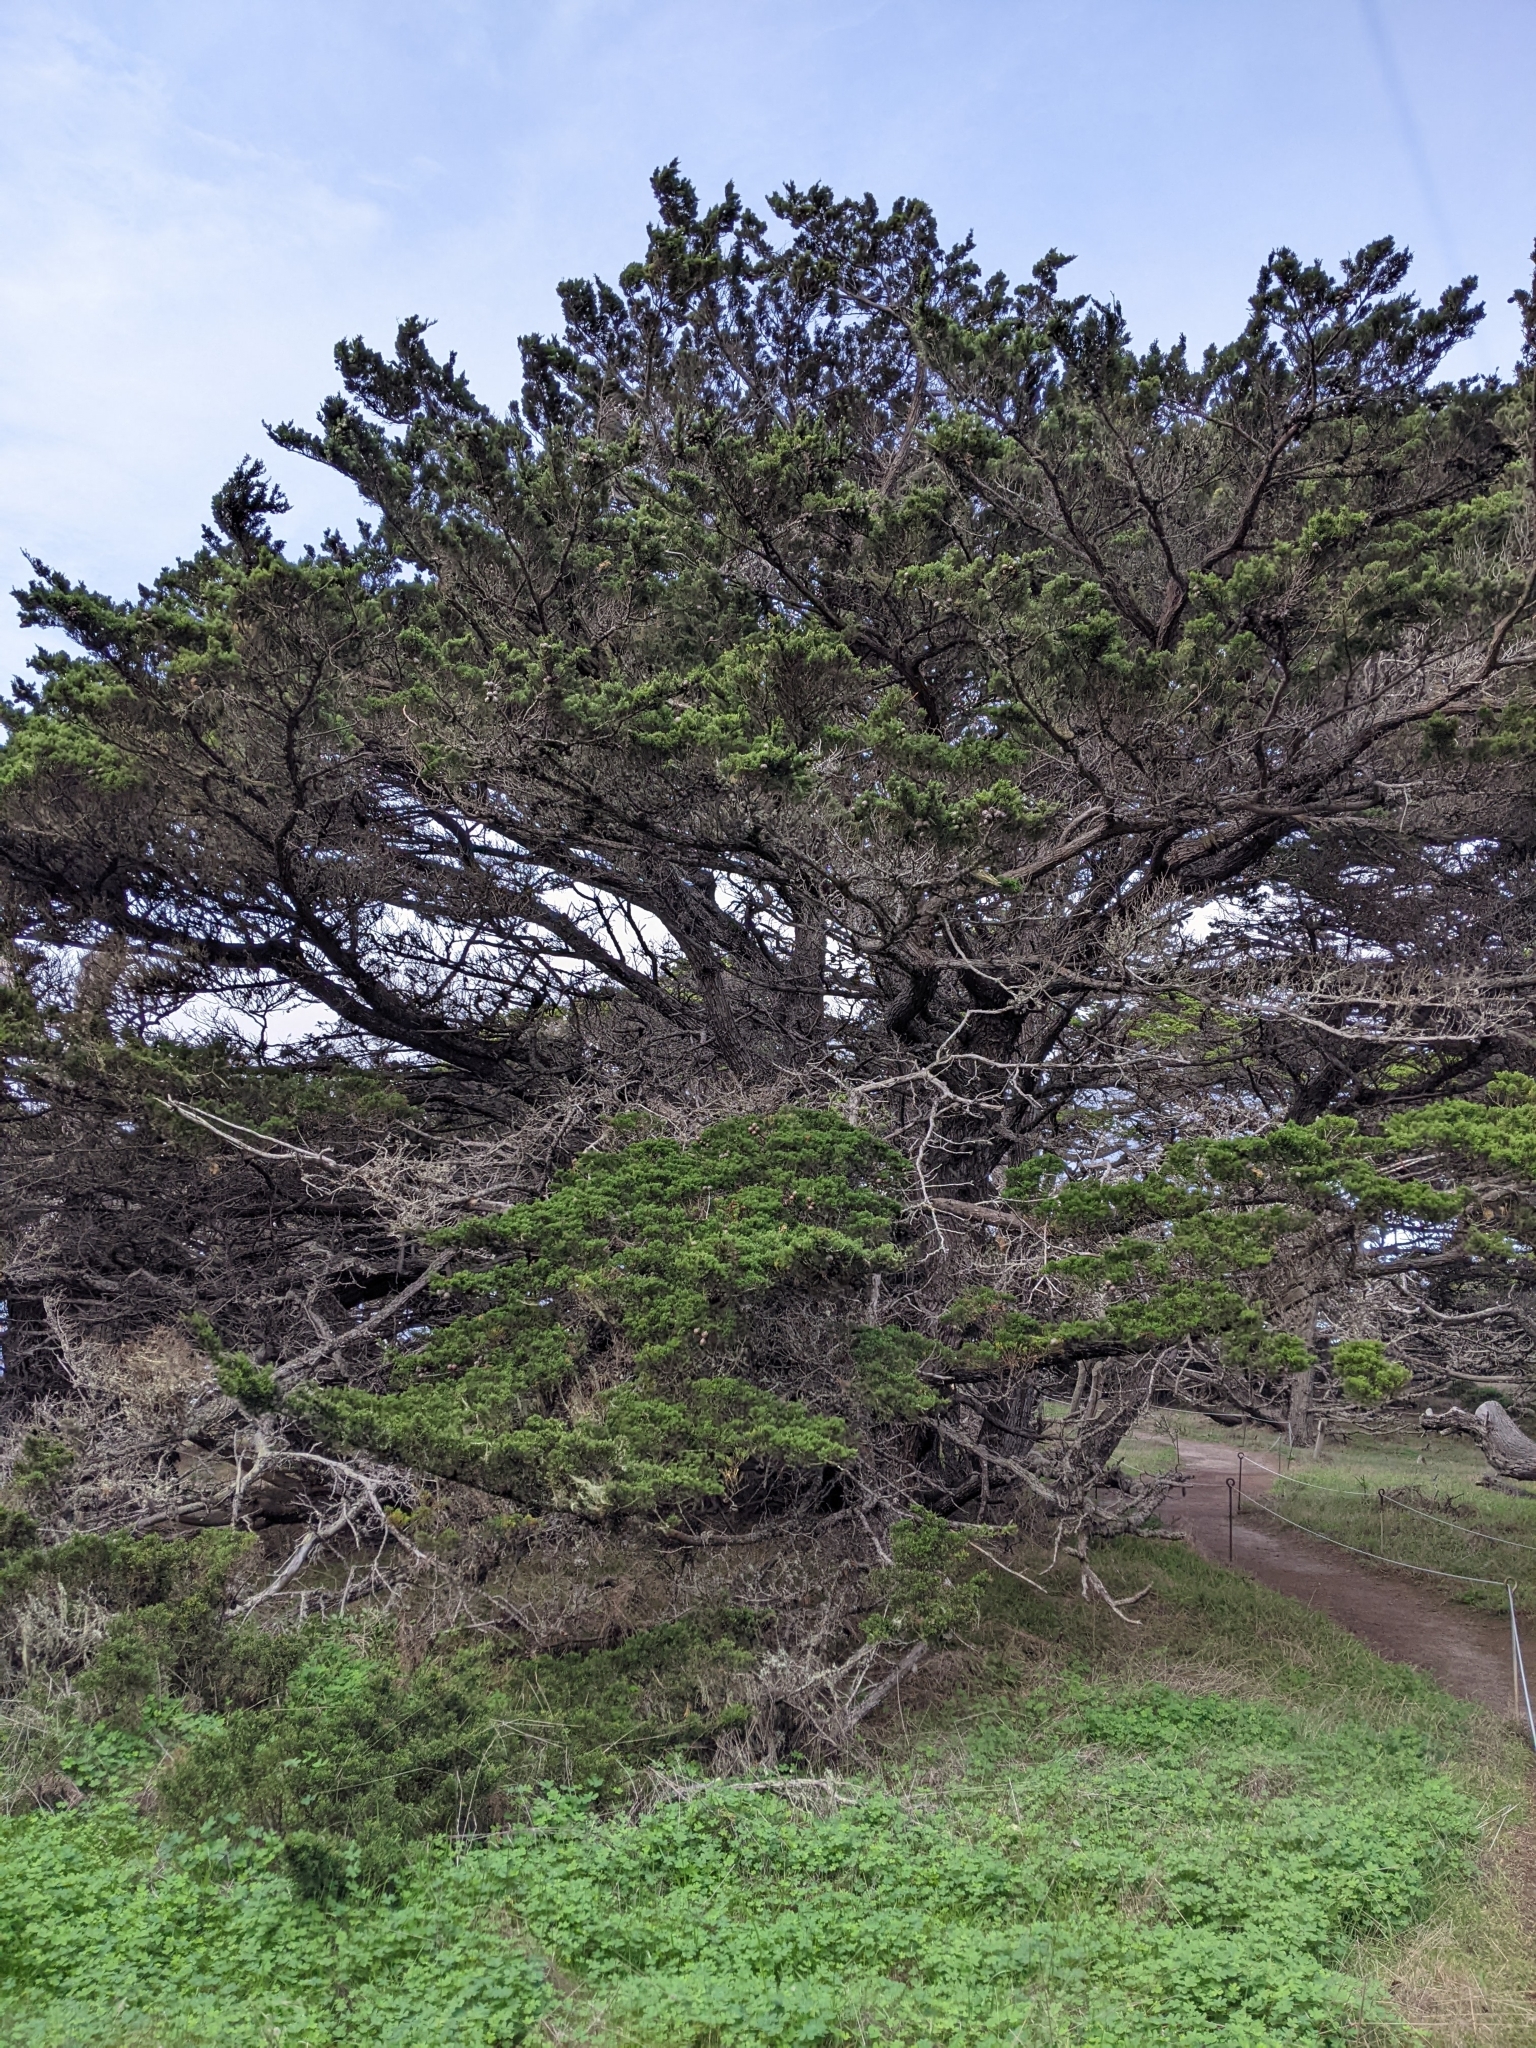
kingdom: Plantae
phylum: Tracheophyta
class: Pinopsida
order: Pinales
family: Cupressaceae
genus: Cupressus
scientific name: Cupressus macrocarpa
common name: Monterey cypress
